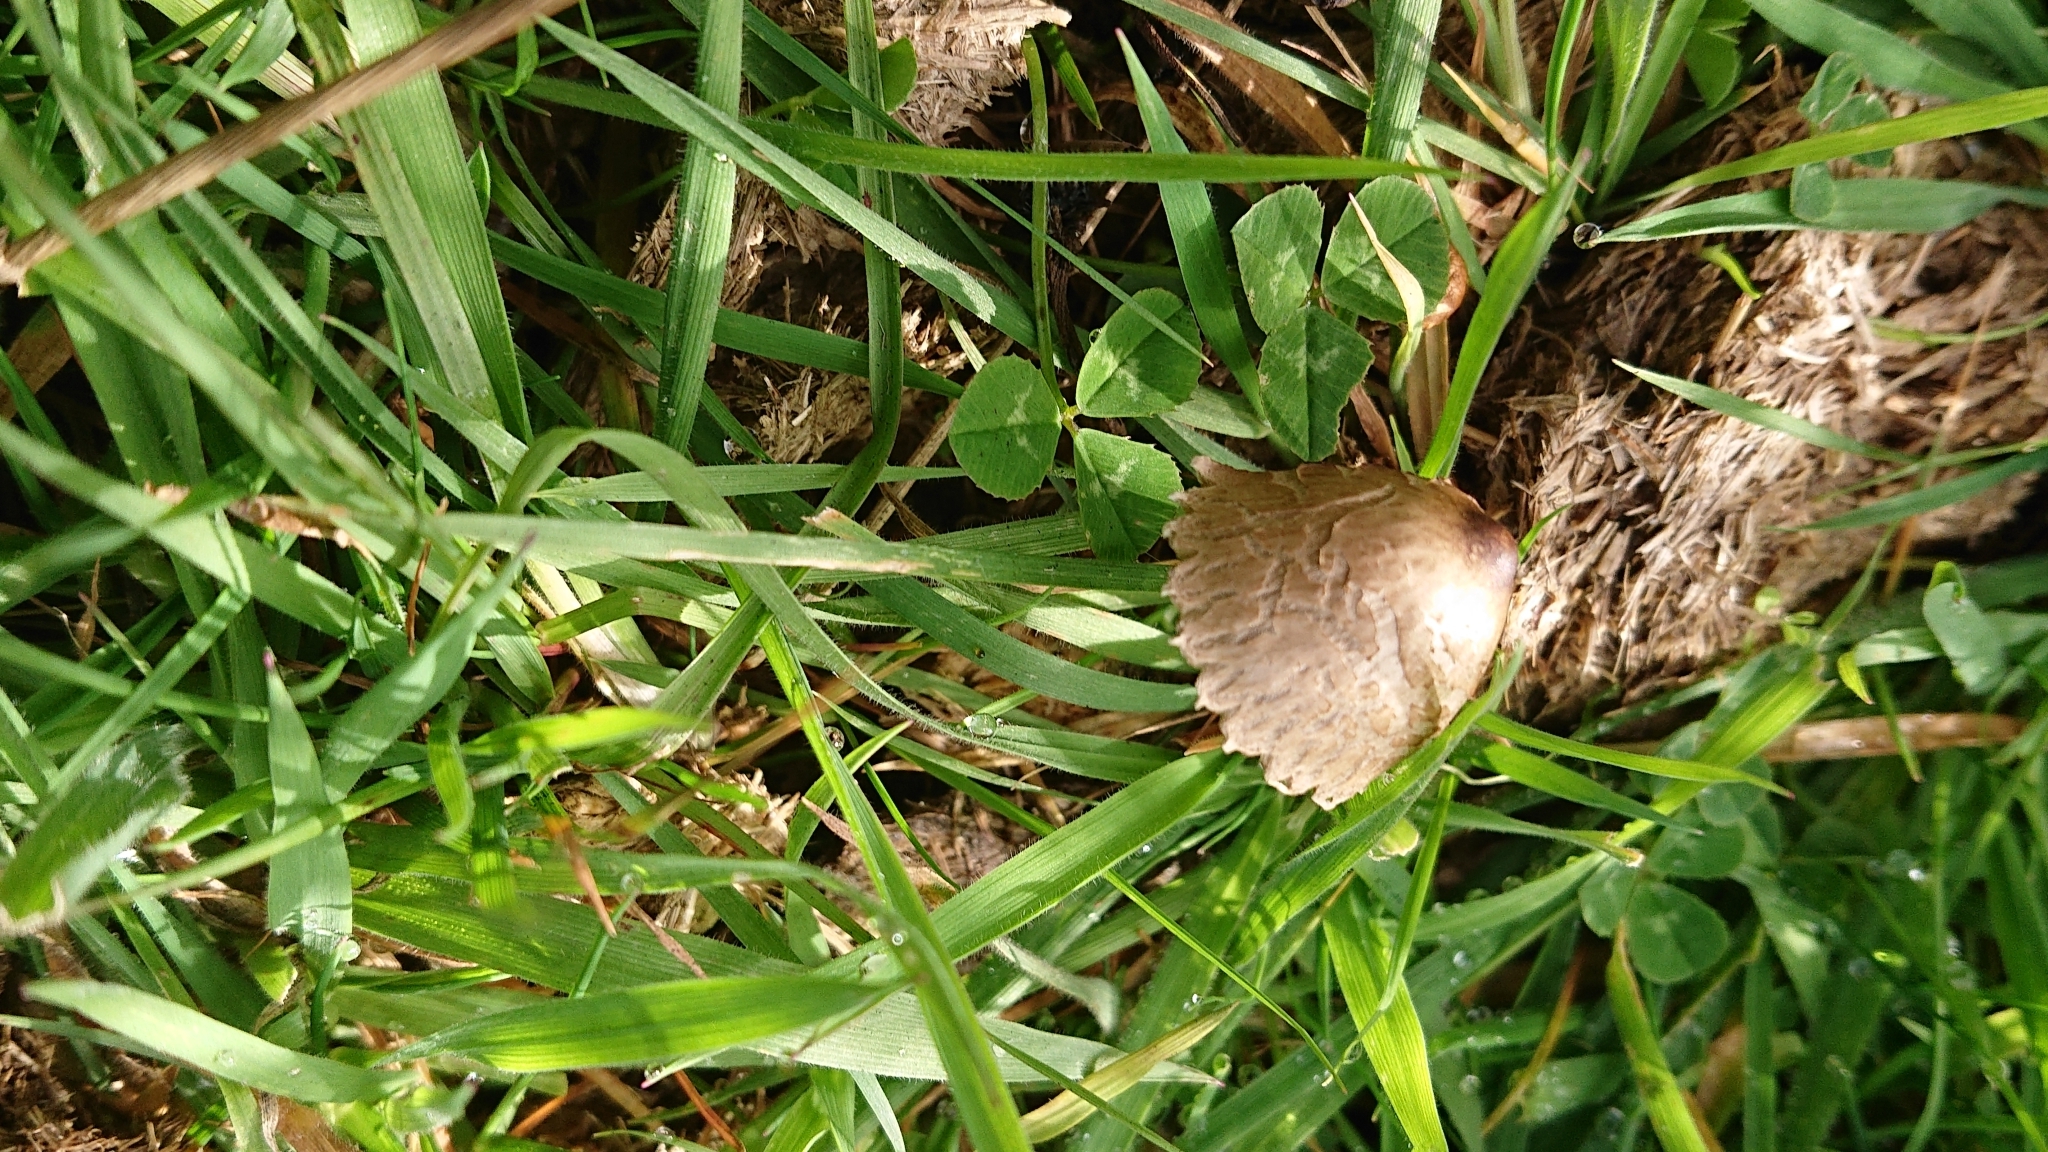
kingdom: Fungi
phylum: Basidiomycota
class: Agaricomycetes
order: Agaricales
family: Bolbitiaceae
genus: Panaeolus
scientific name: Panaeolus papilionaceus
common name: Petticoat mottlegill
